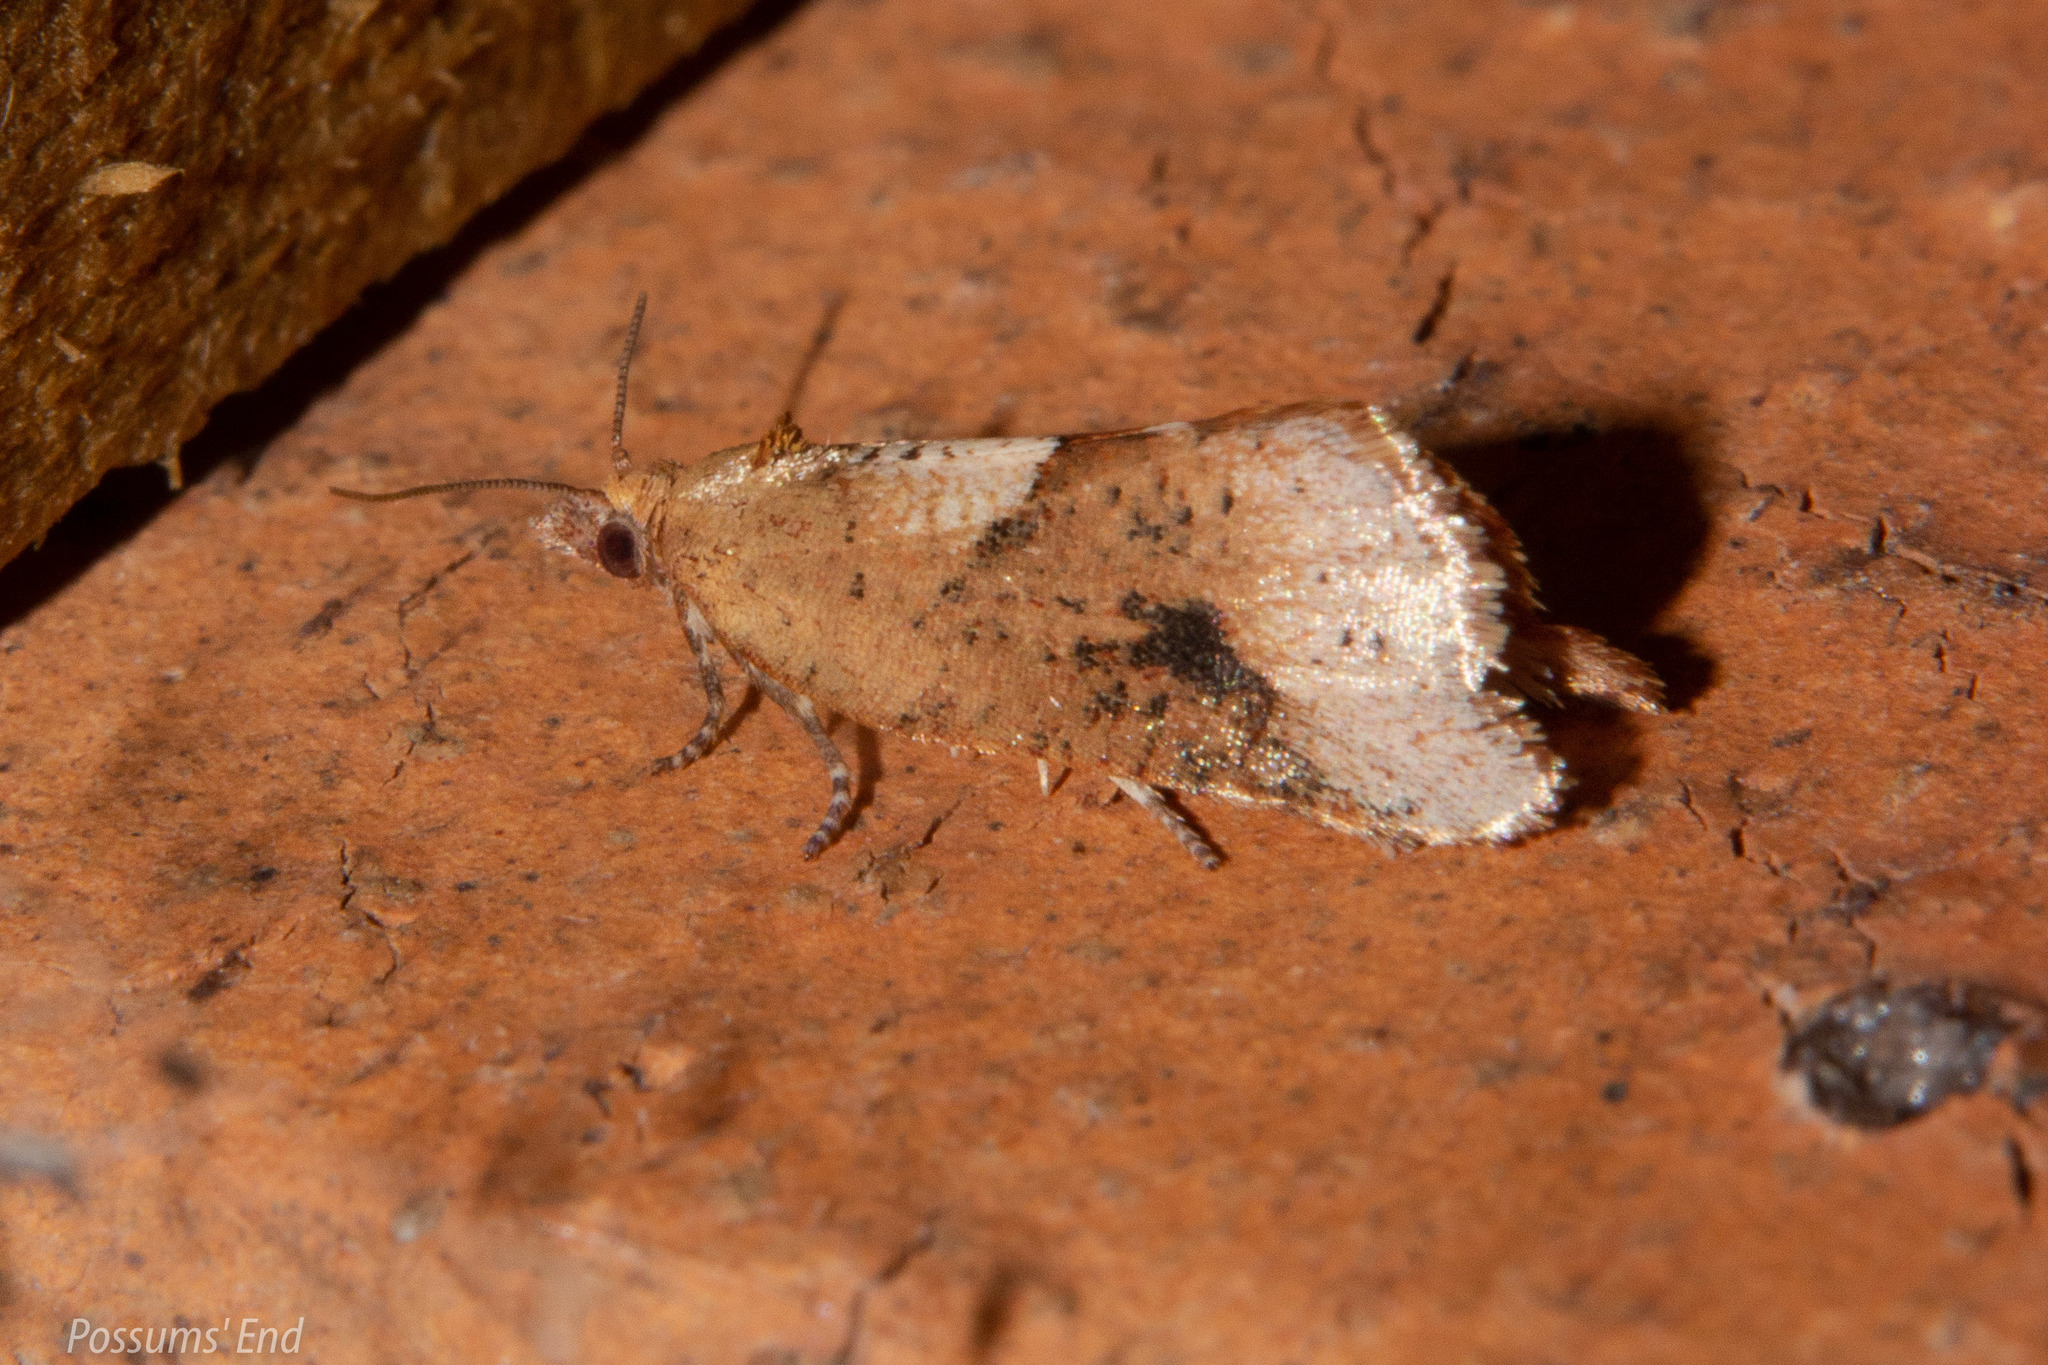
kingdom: Animalia
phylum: Arthropoda
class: Insecta
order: Lepidoptera
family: Tortricidae
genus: Pyrgotis
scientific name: Pyrgotis pyramidias
